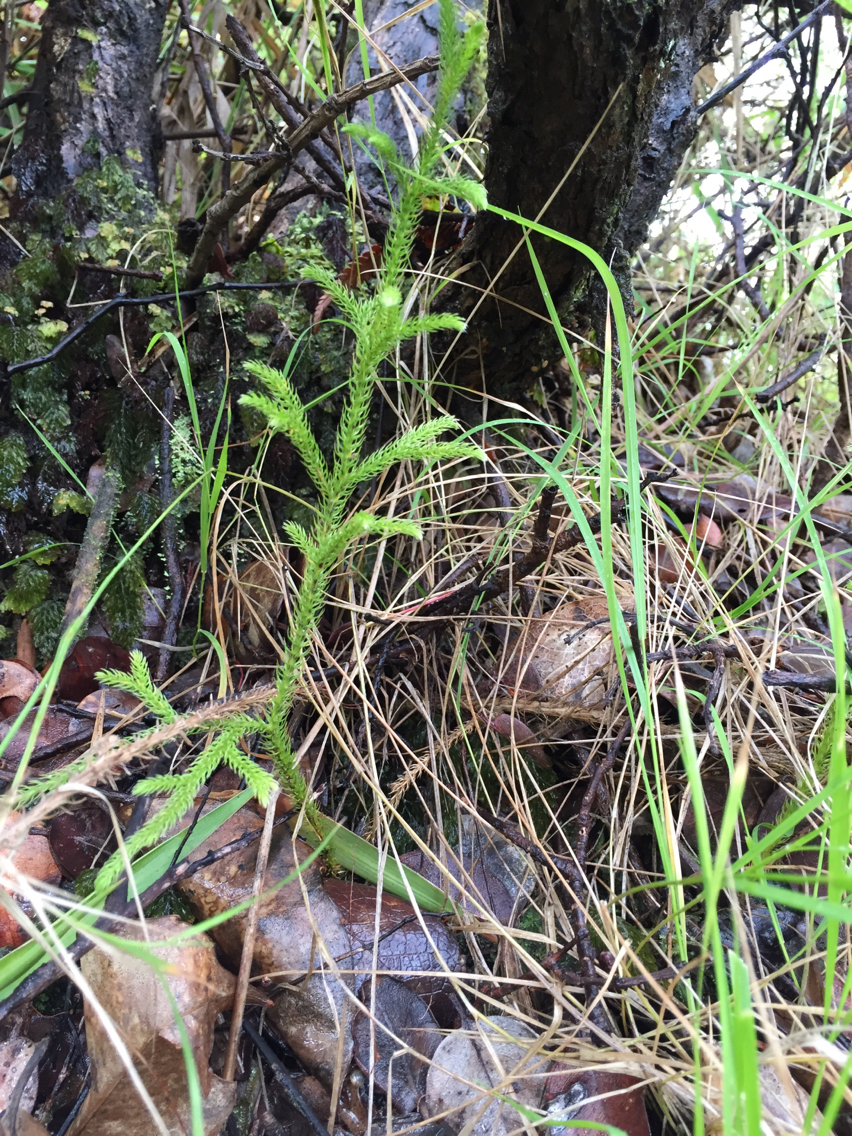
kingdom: Plantae
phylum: Tracheophyta
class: Lycopodiopsida
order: Lycopodiales
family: Lycopodiaceae
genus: Palhinhaea
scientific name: Palhinhaea cernua
